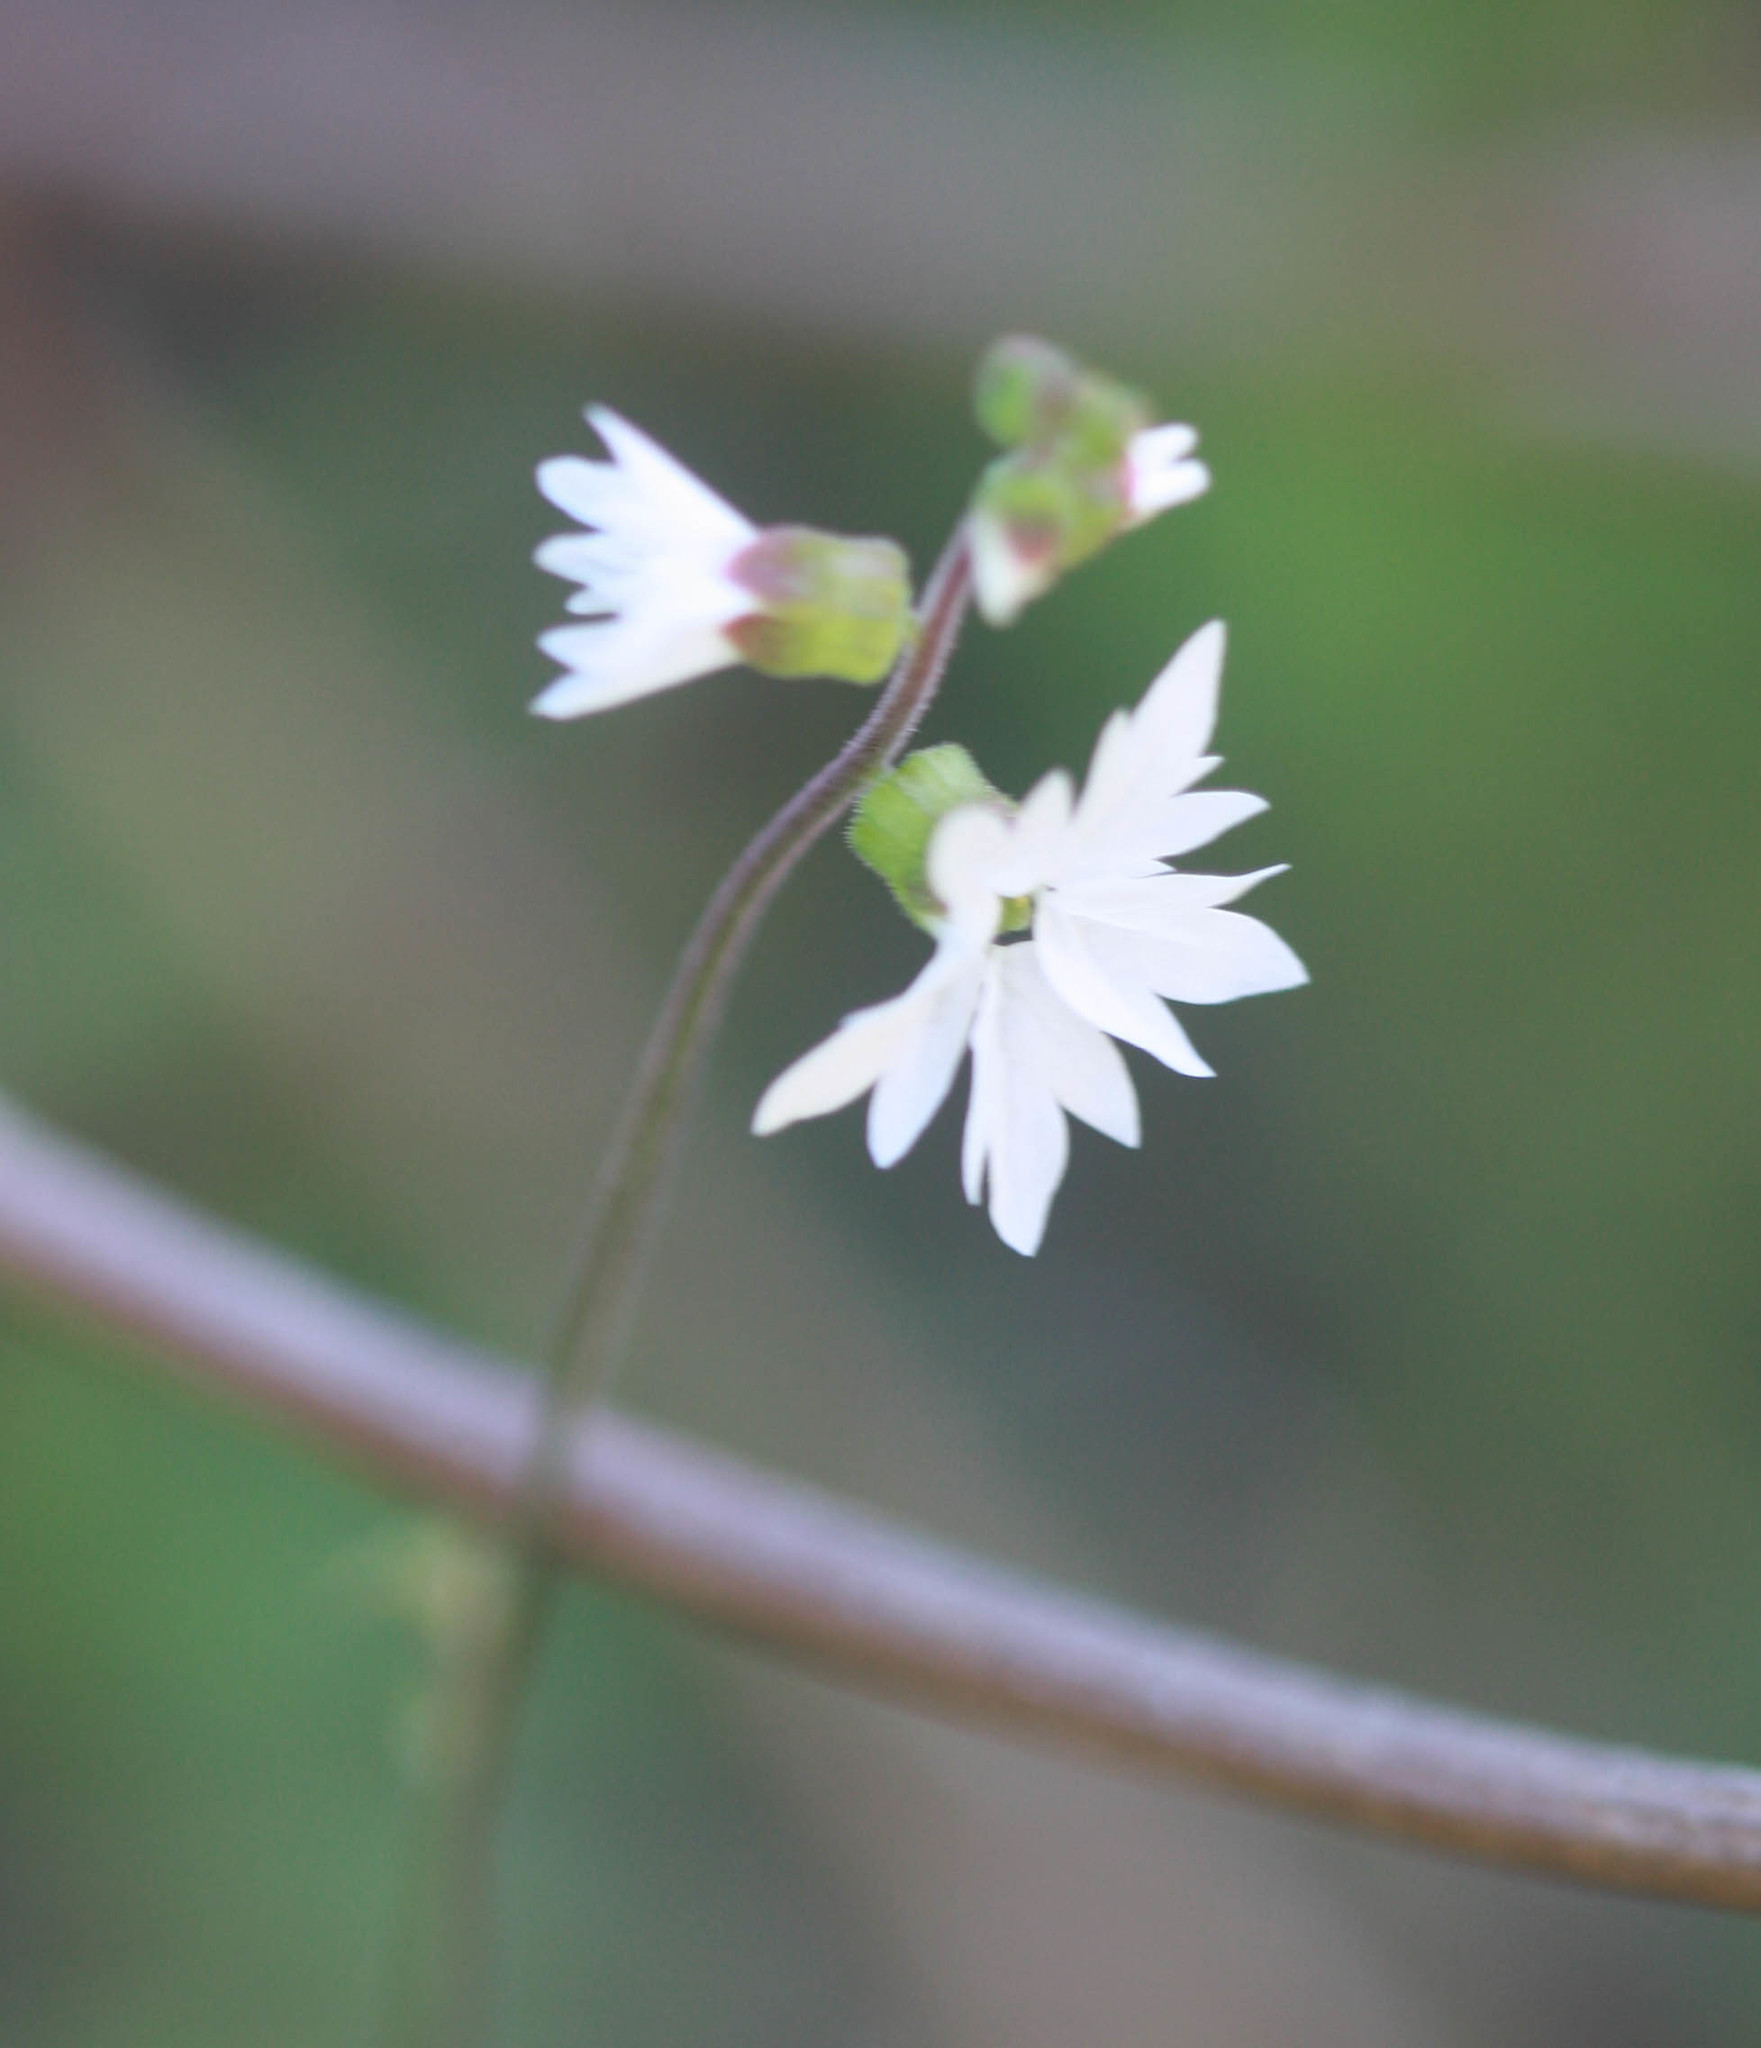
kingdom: Plantae
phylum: Tracheophyta
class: Magnoliopsida
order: Saxifragales
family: Saxifragaceae
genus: Lithophragma
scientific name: Lithophragma heterophyllum
